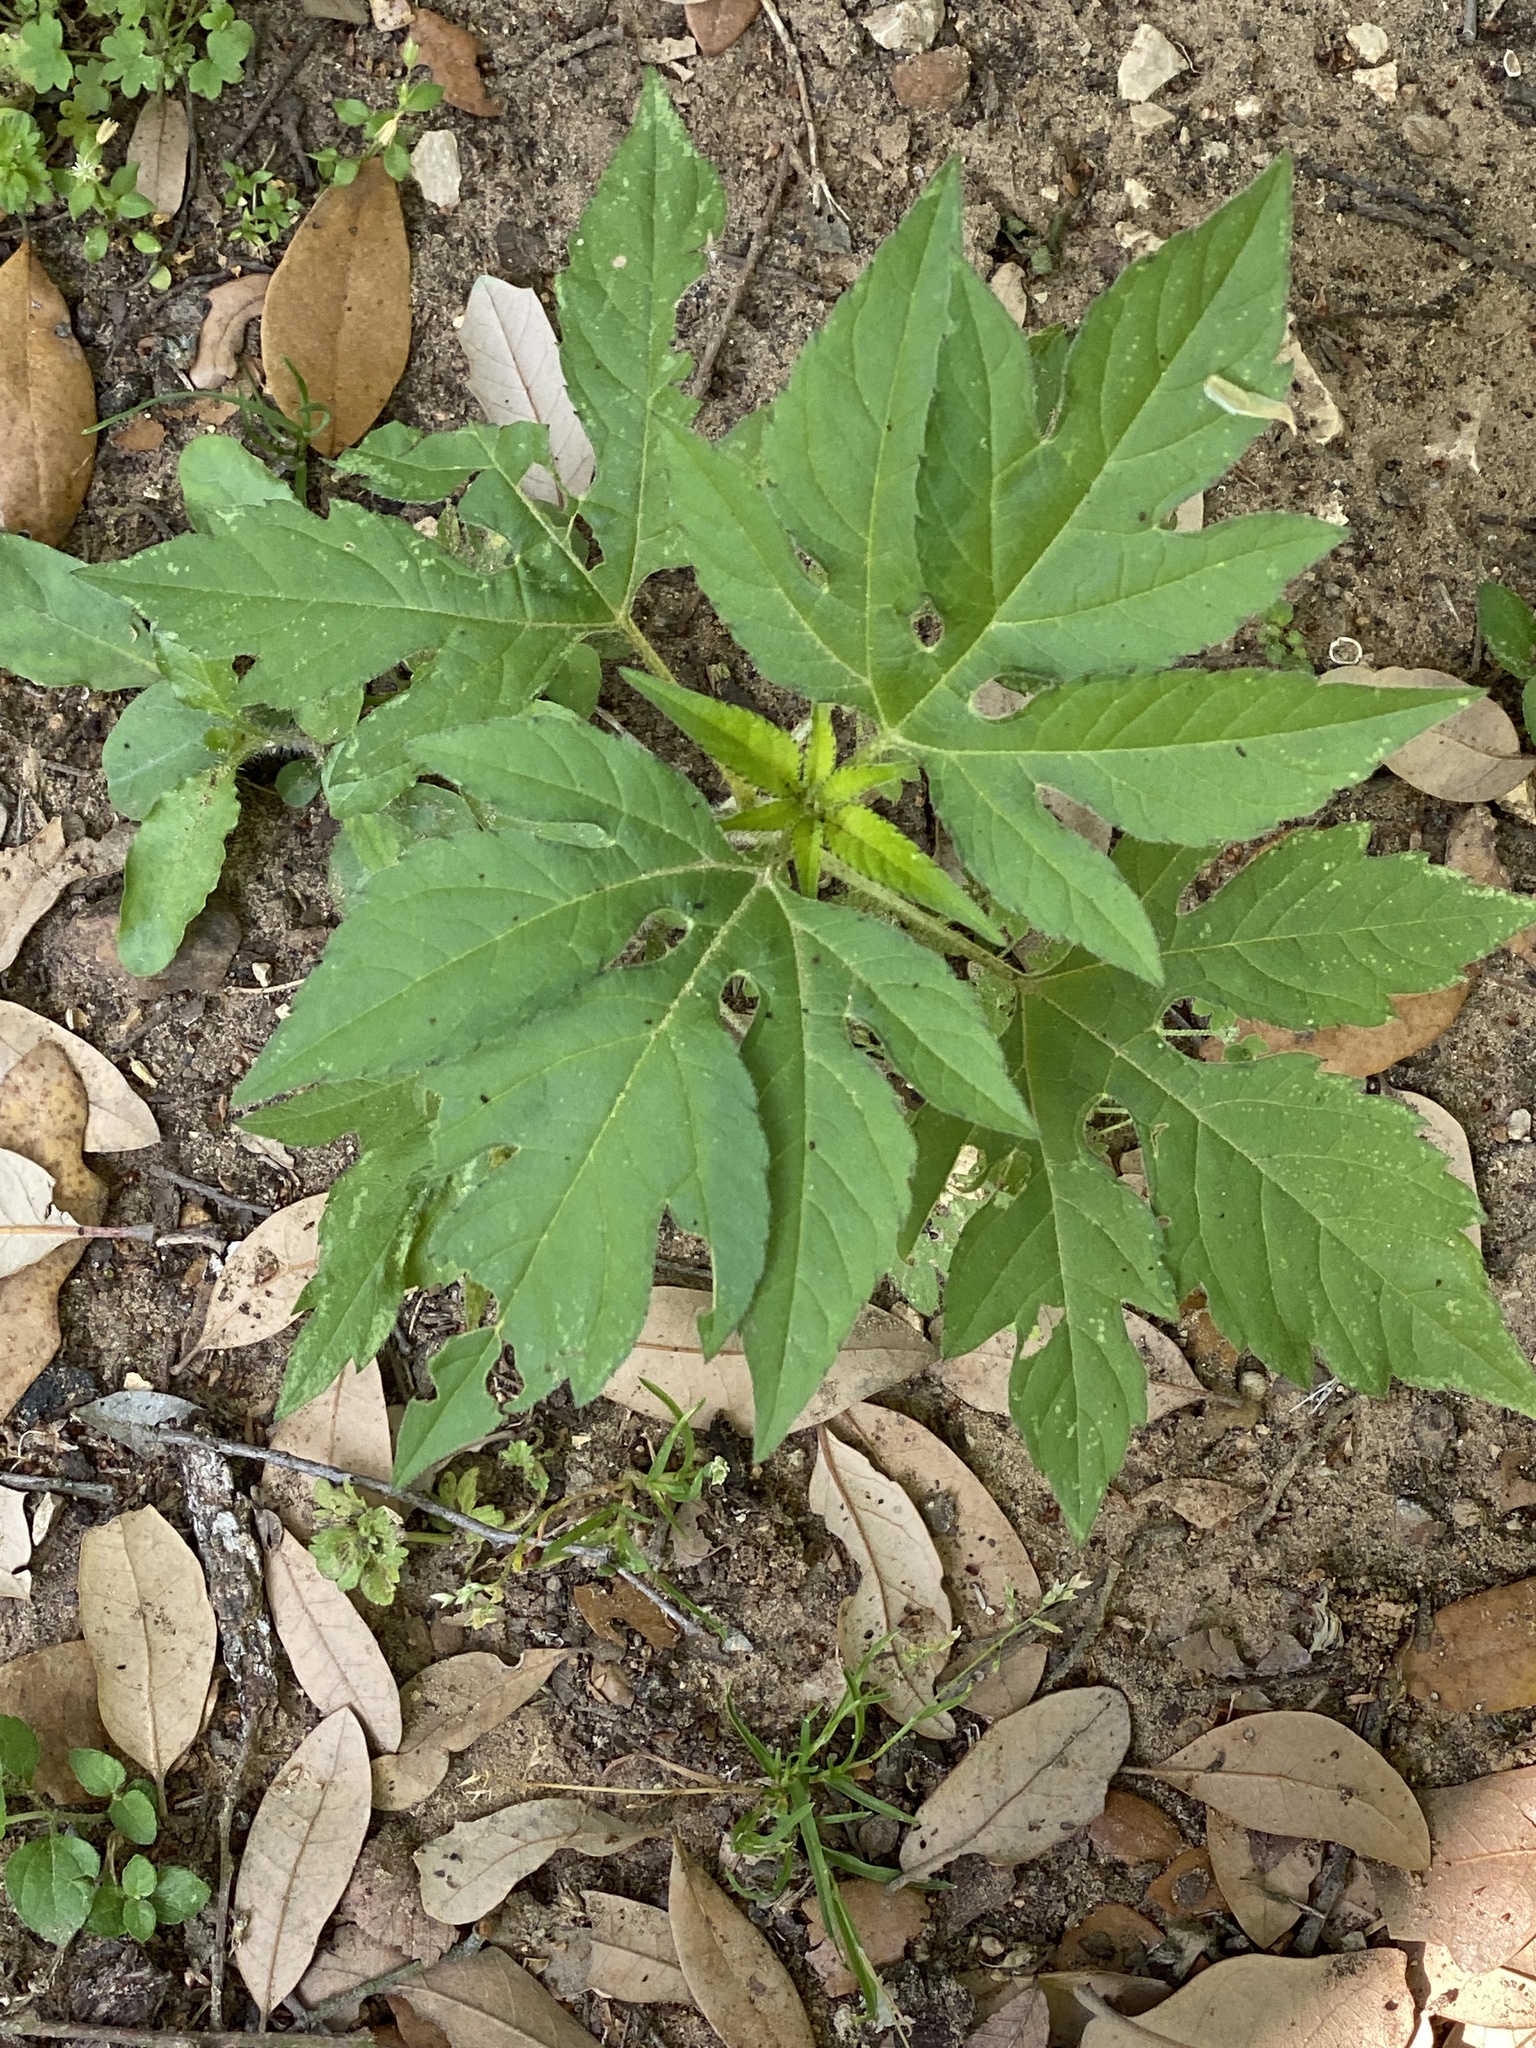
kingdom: Plantae
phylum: Tracheophyta
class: Magnoliopsida
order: Asterales
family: Asteraceae
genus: Ambrosia
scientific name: Ambrosia trifida
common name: Giant ragweed
